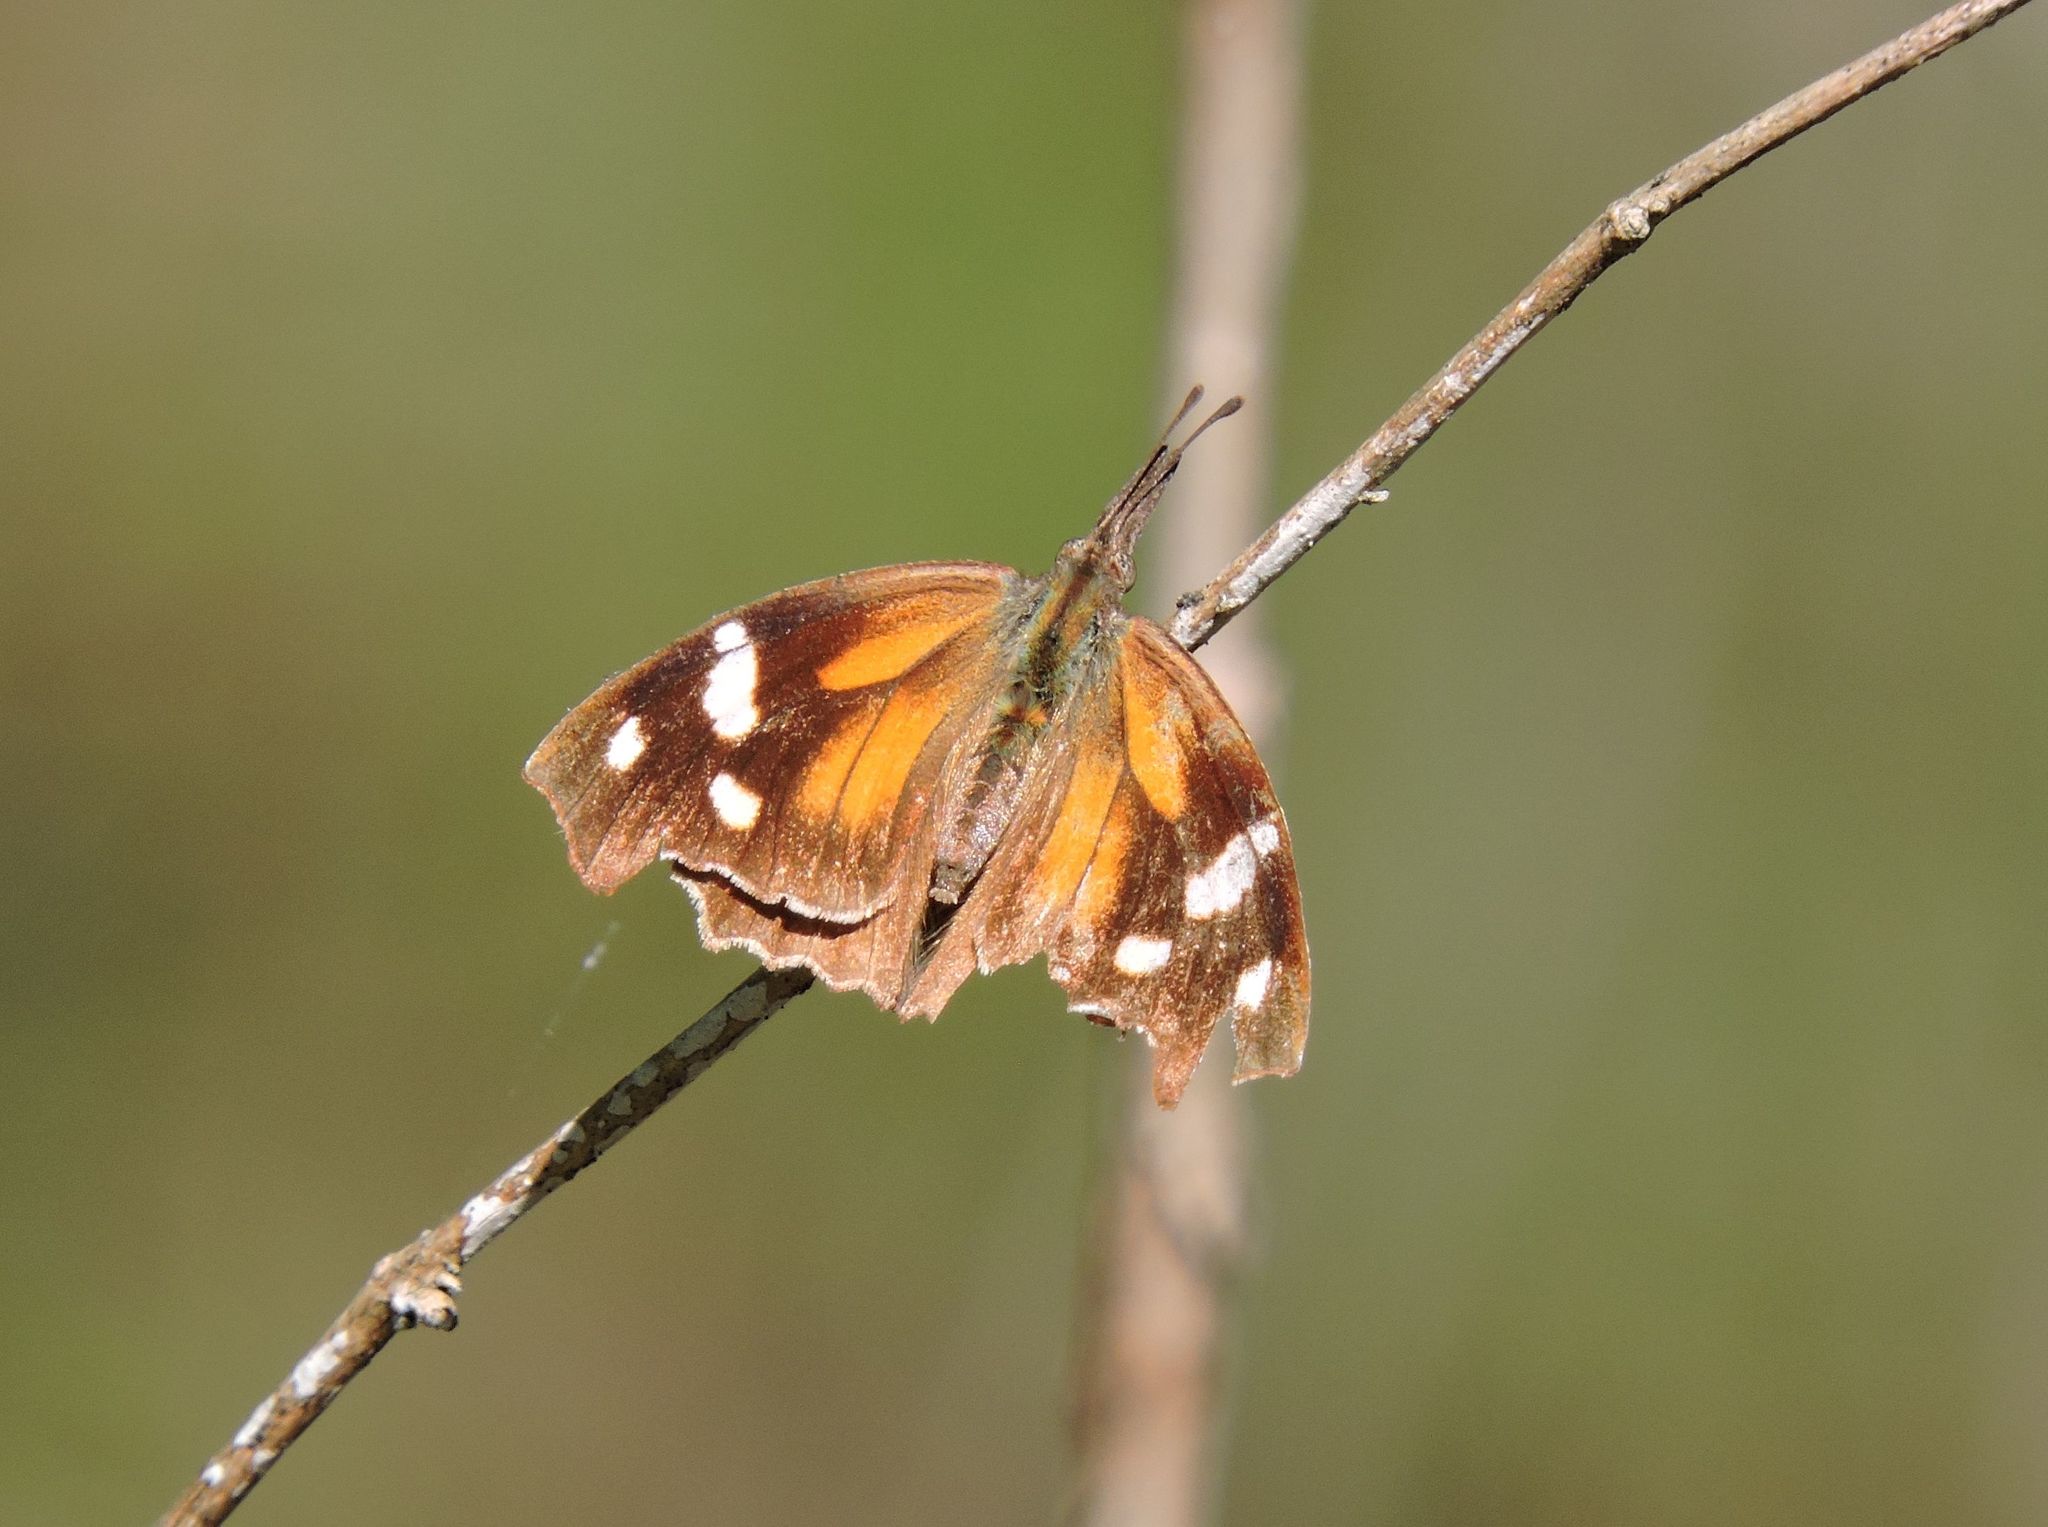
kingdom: Animalia
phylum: Arthropoda
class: Insecta
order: Lepidoptera
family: Nymphalidae
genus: Libytheana
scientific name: Libytheana carinenta
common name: American snout
